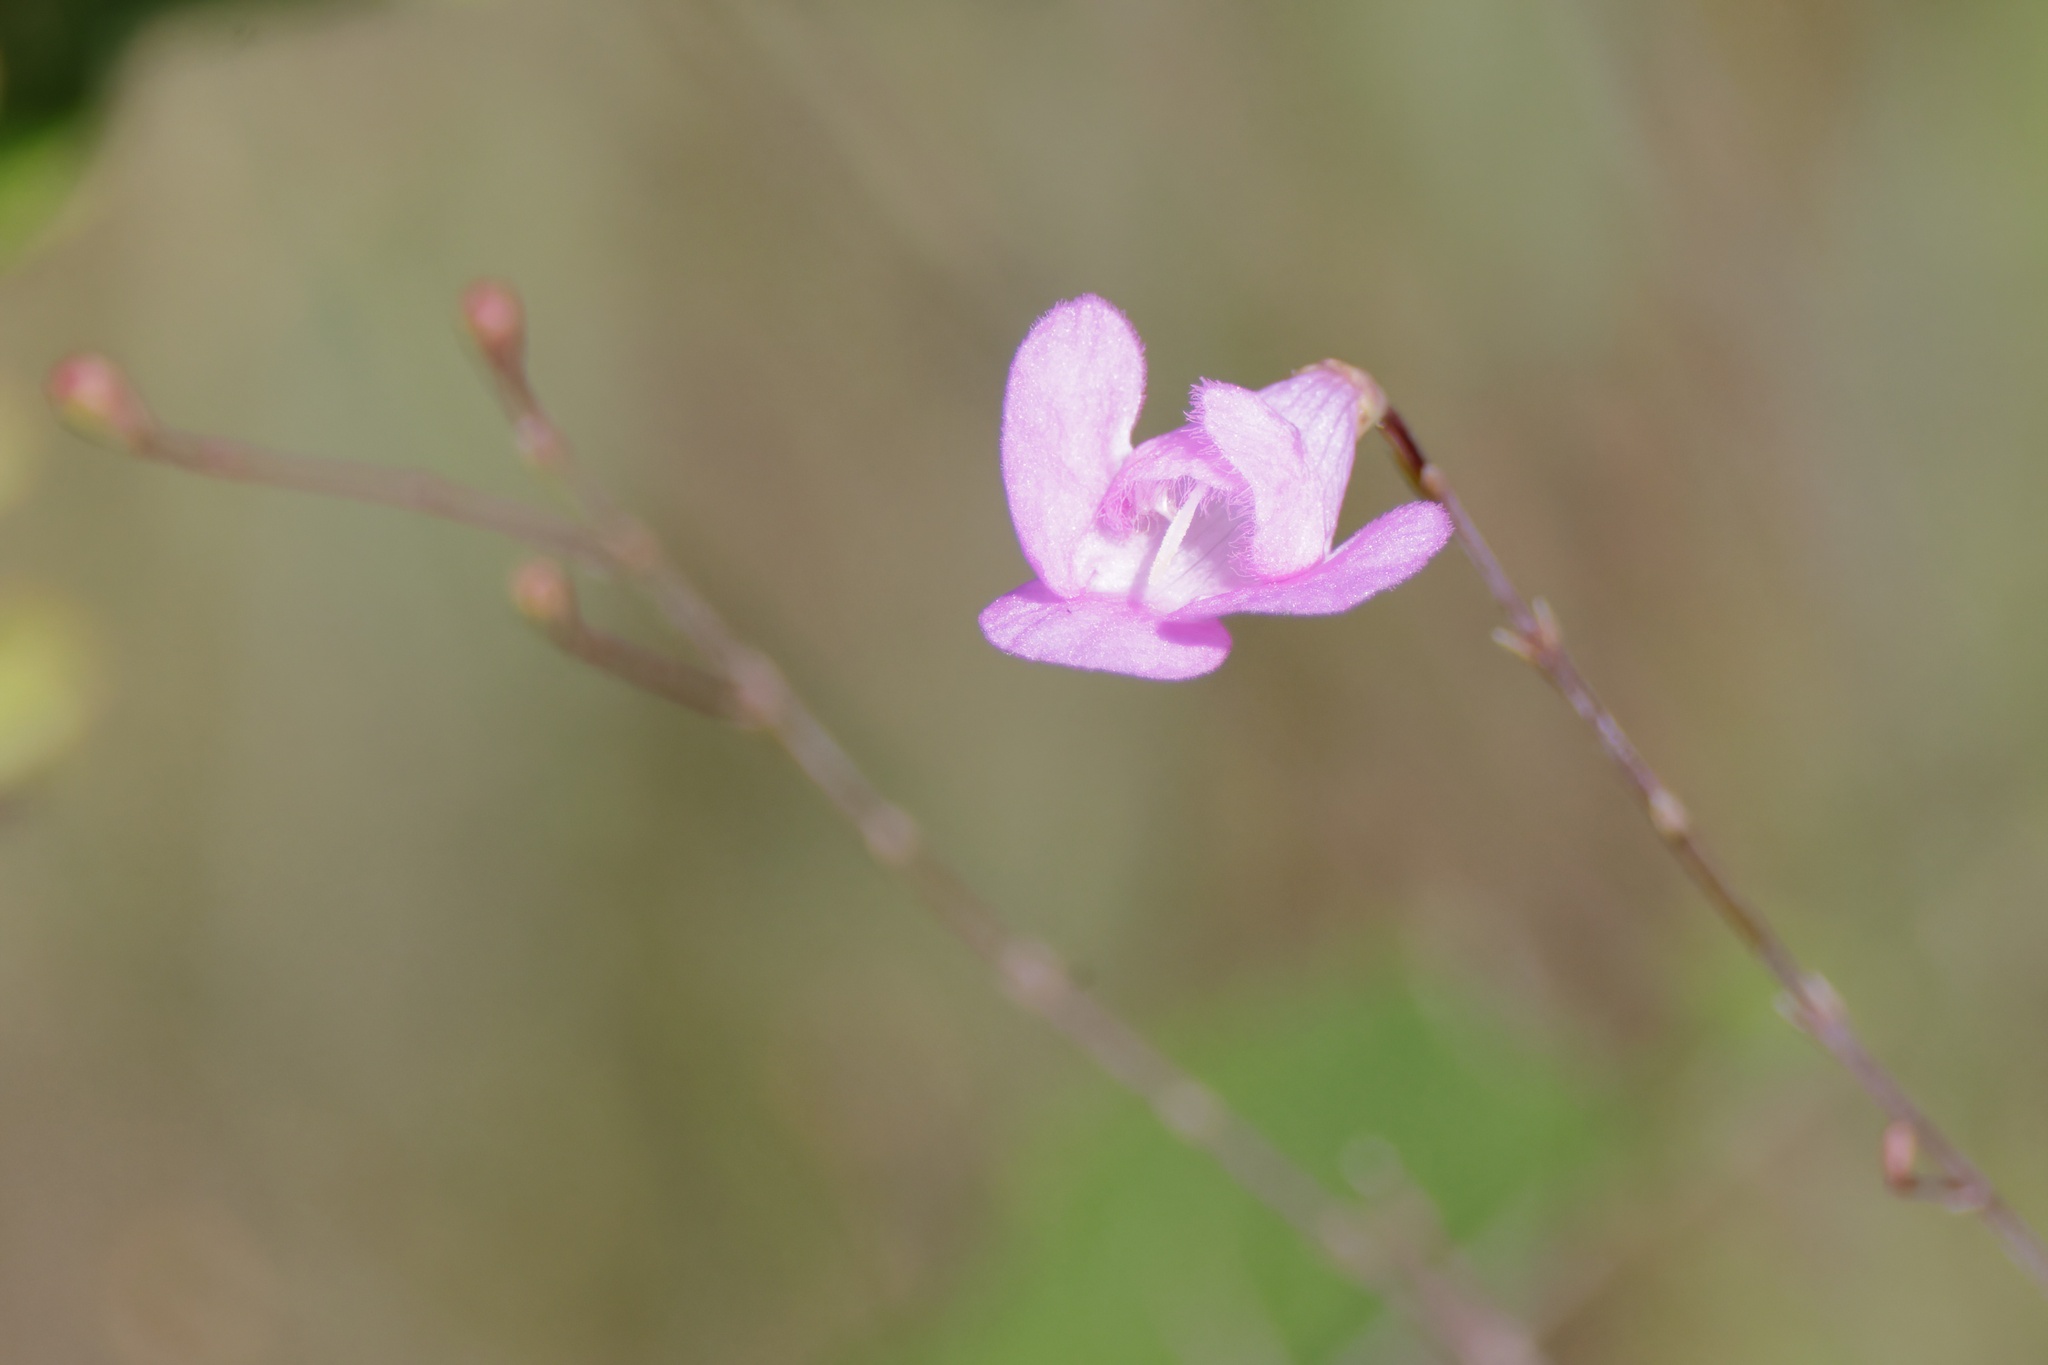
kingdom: Plantae
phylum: Tracheophyta
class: Magnoliopsida
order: Lamiales
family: Orobanchaceae
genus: Agalinis
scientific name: Agalinis filicaulis
